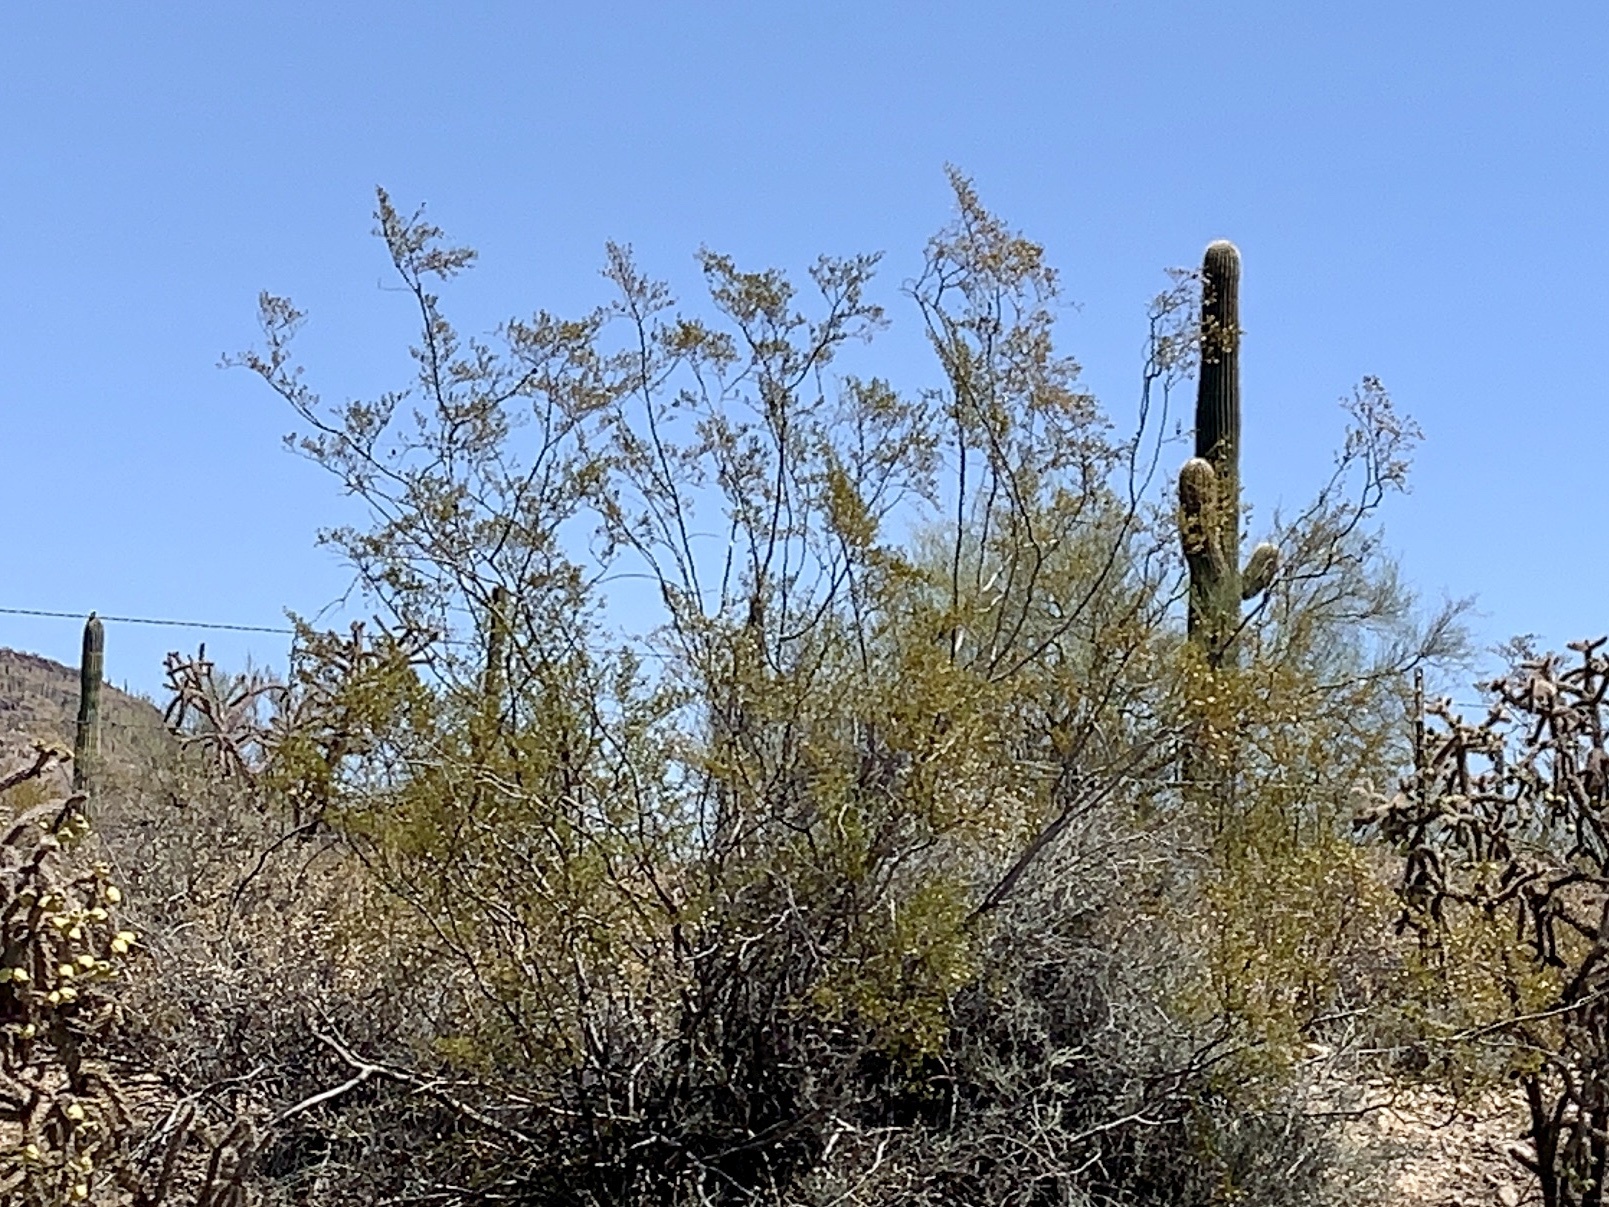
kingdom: Plantae
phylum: Tracheophyta
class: Magnoliopsida
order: Zygophyllales
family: Zygophyllaceae
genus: Larrea
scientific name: Larrea tridentata
